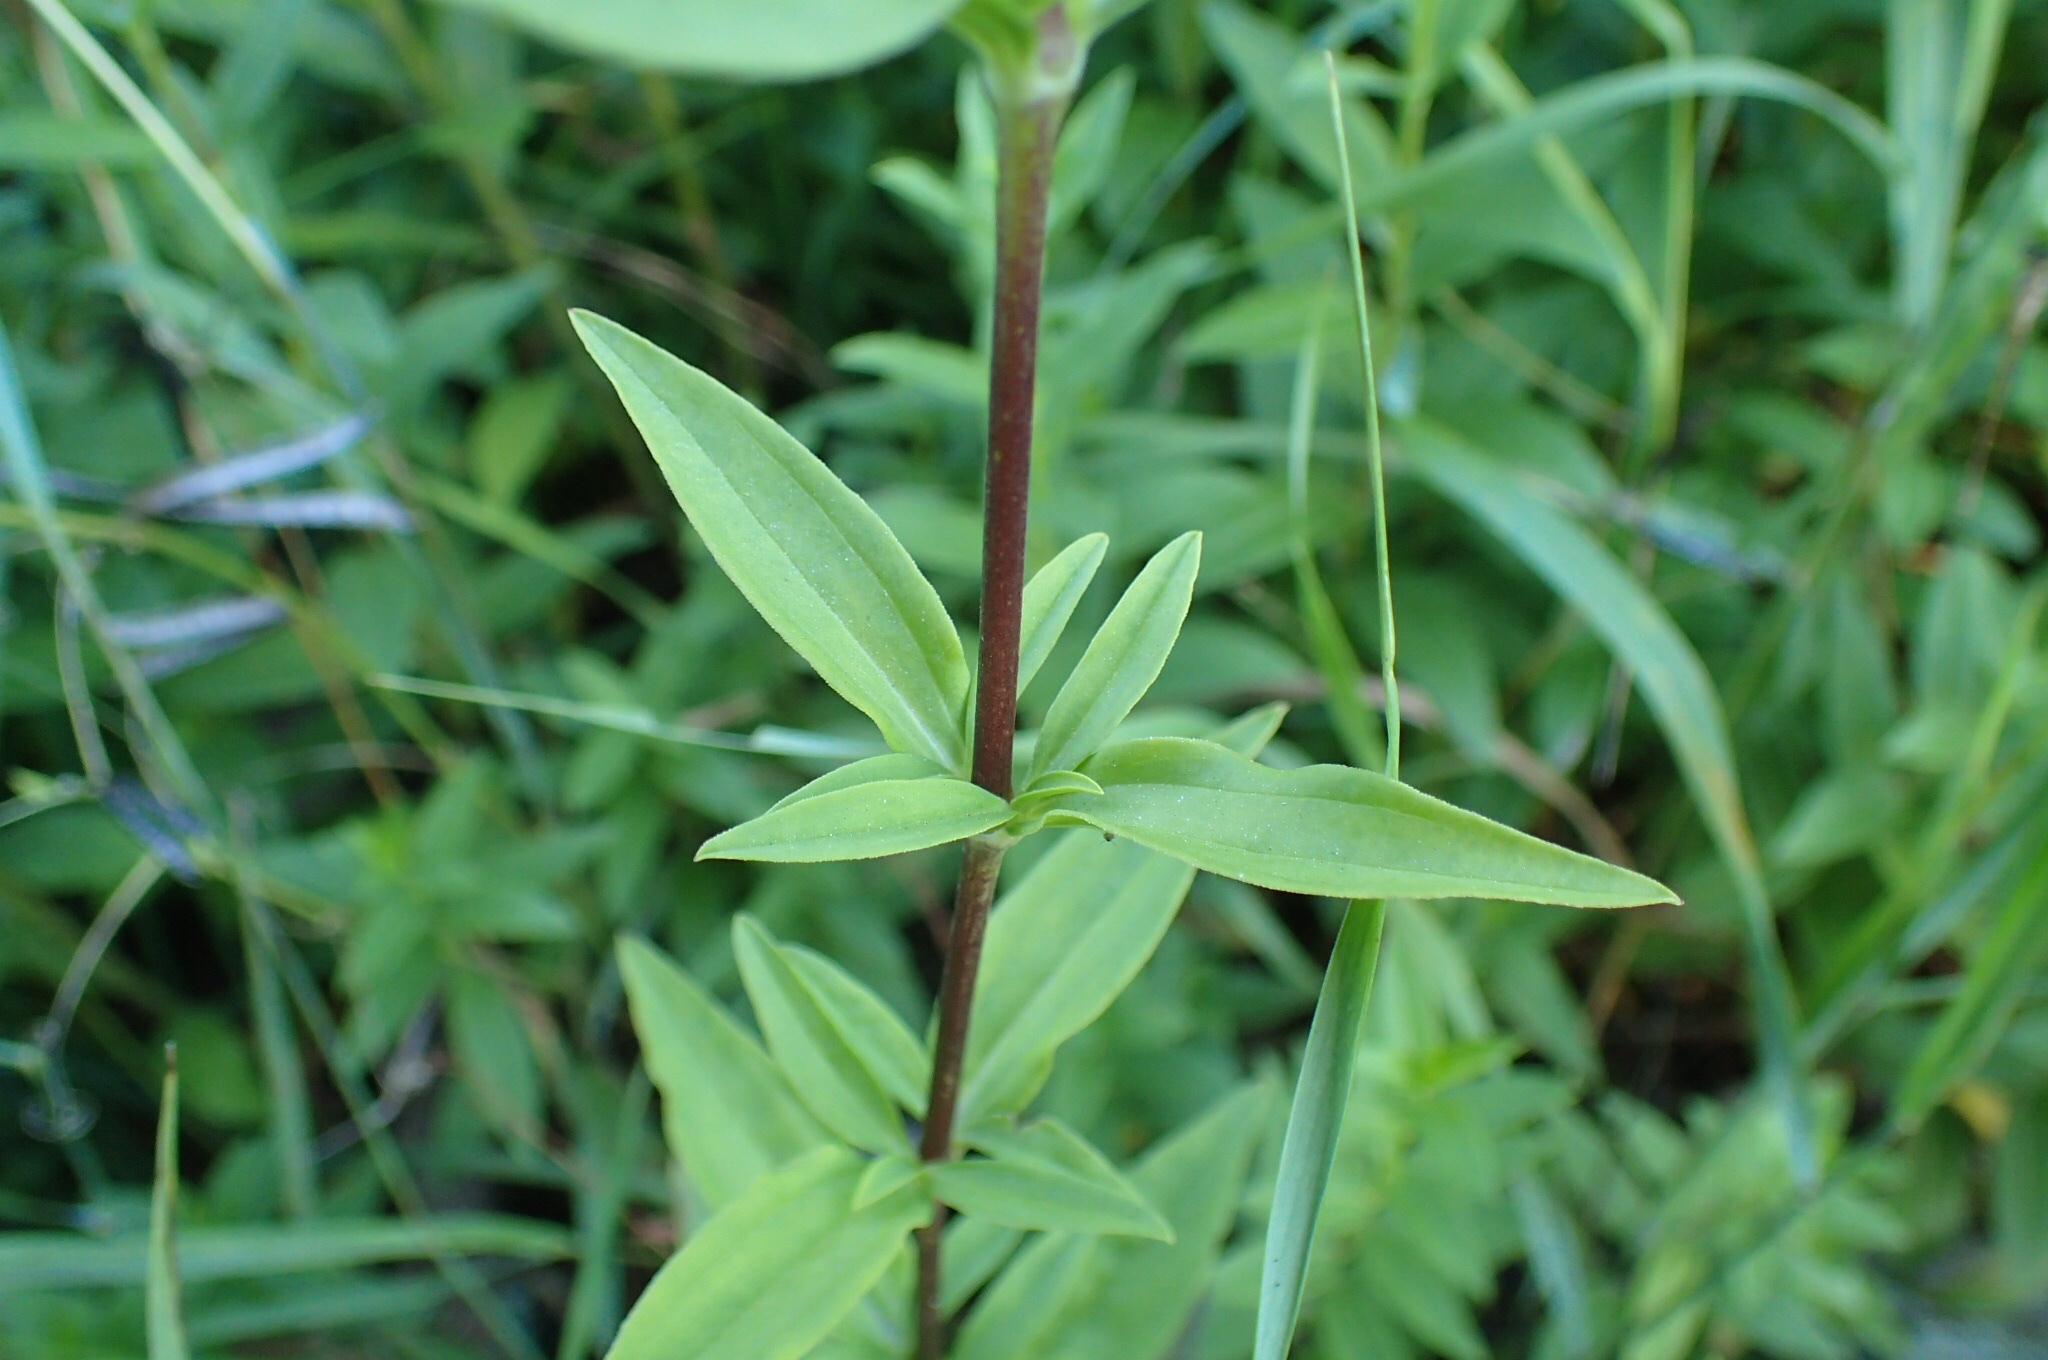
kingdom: Plantae
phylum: Tracheophyta
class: Magnoliopsida
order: Caryophyllales
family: Caryophyllaceae
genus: Saponaria
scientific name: Saponaria officinalis
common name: Soapwort
